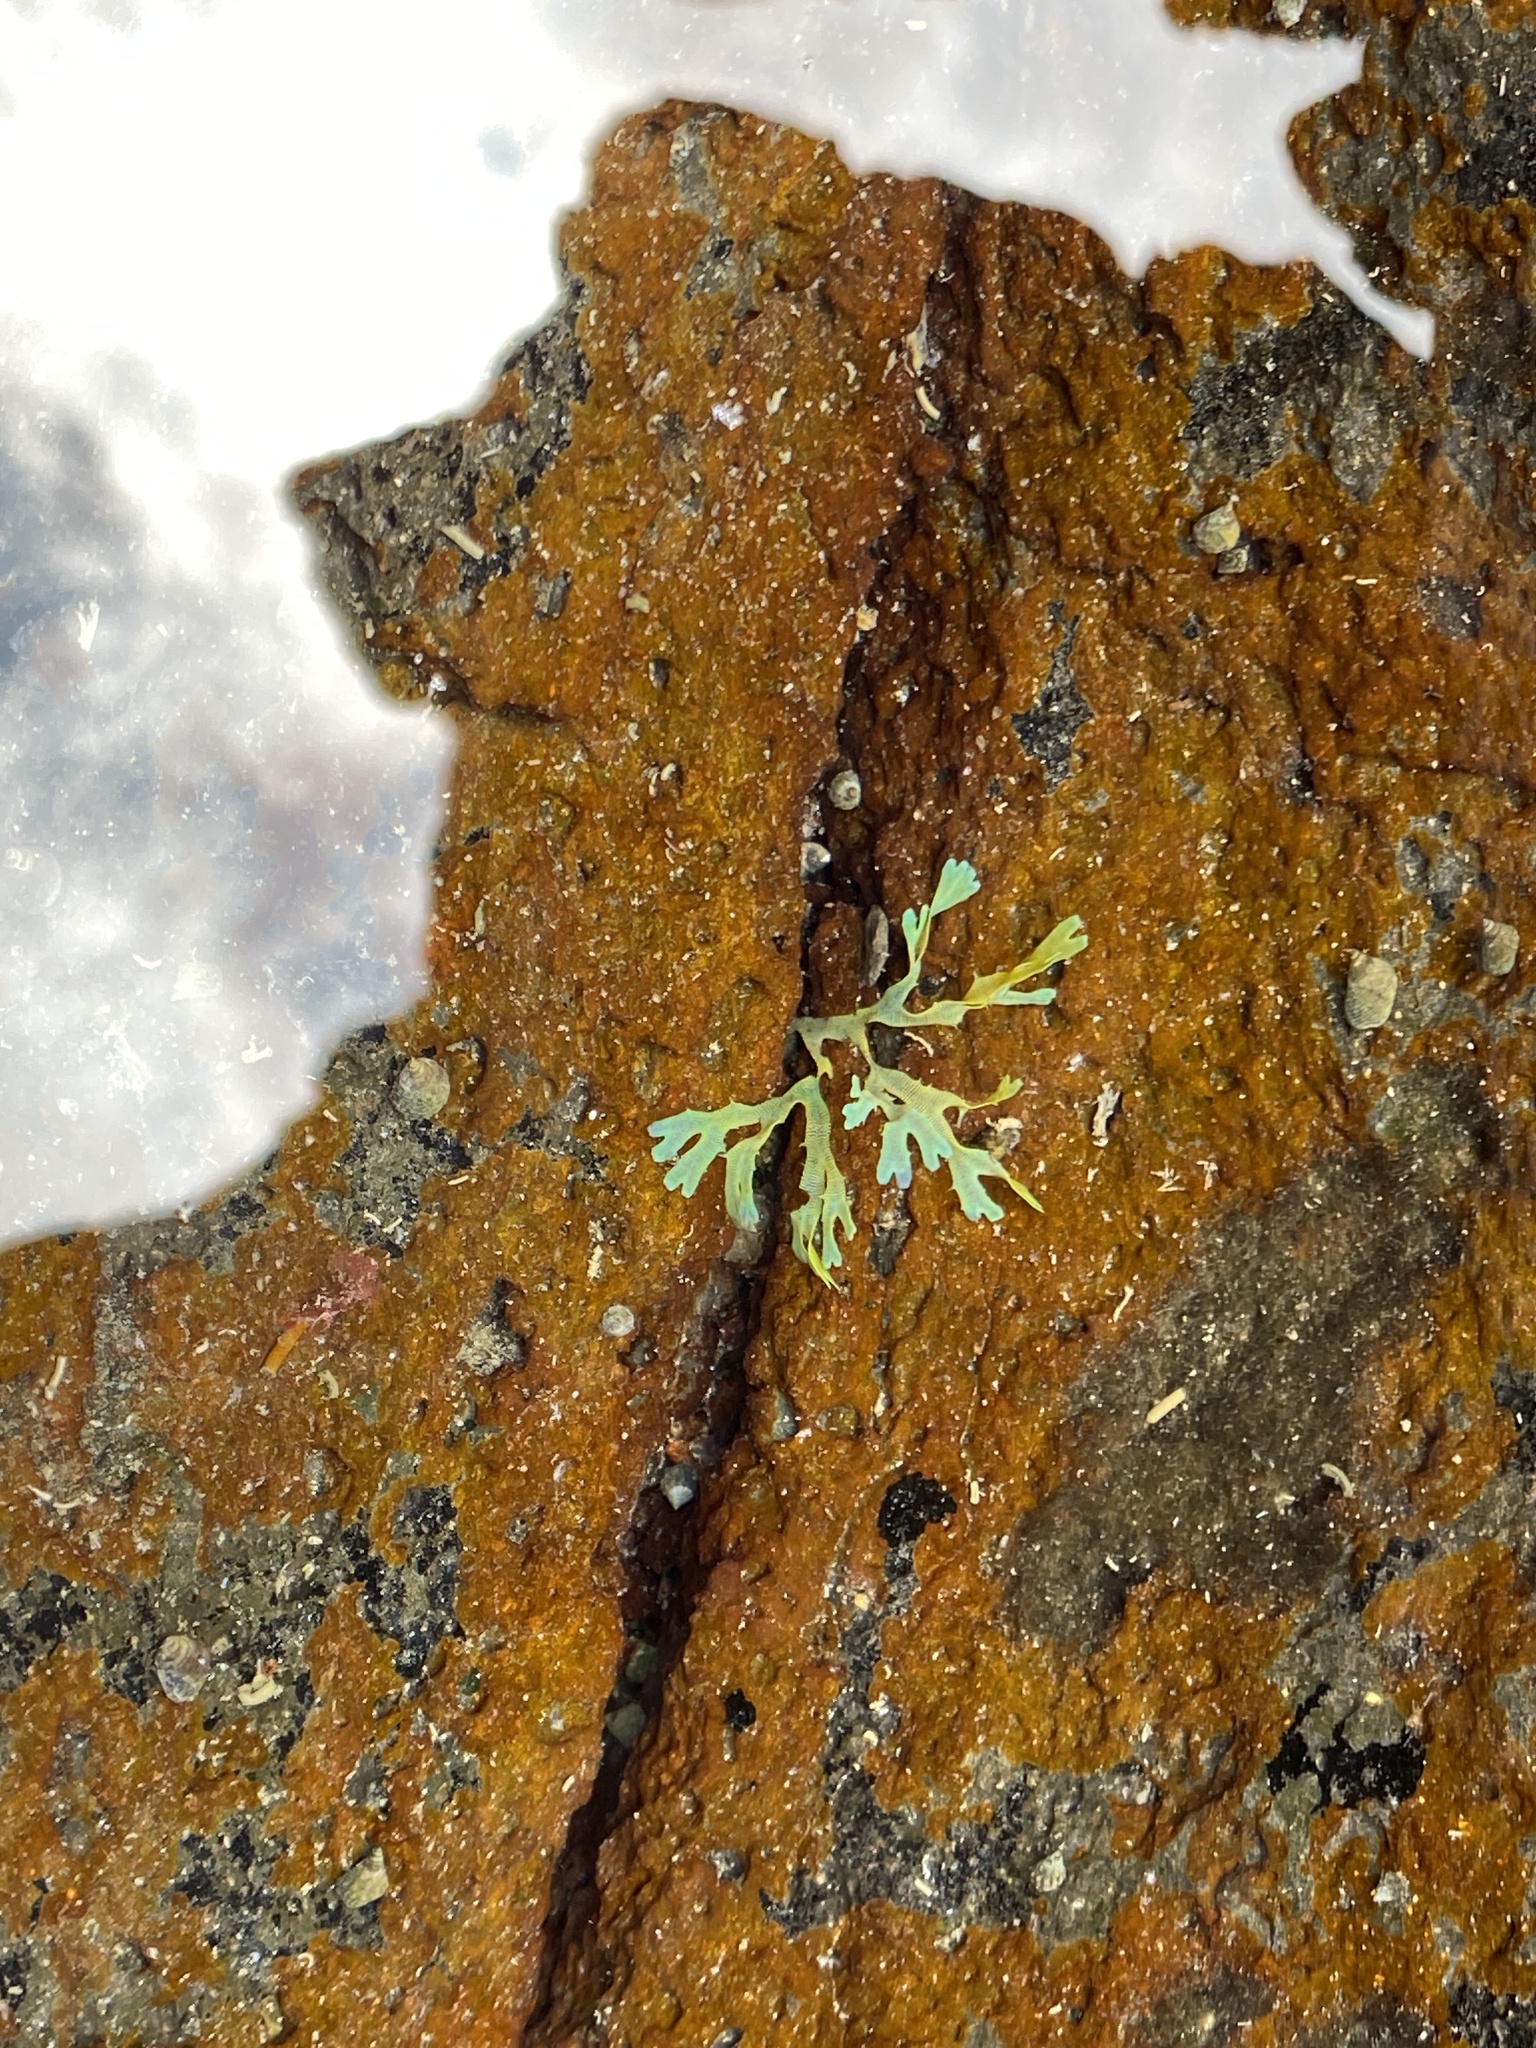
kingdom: Chromista
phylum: Ochrophyta
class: Phaeophyceae
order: Dictyotales
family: Dictyotaceae
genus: Dictyota
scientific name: Dictyota dichotoma
